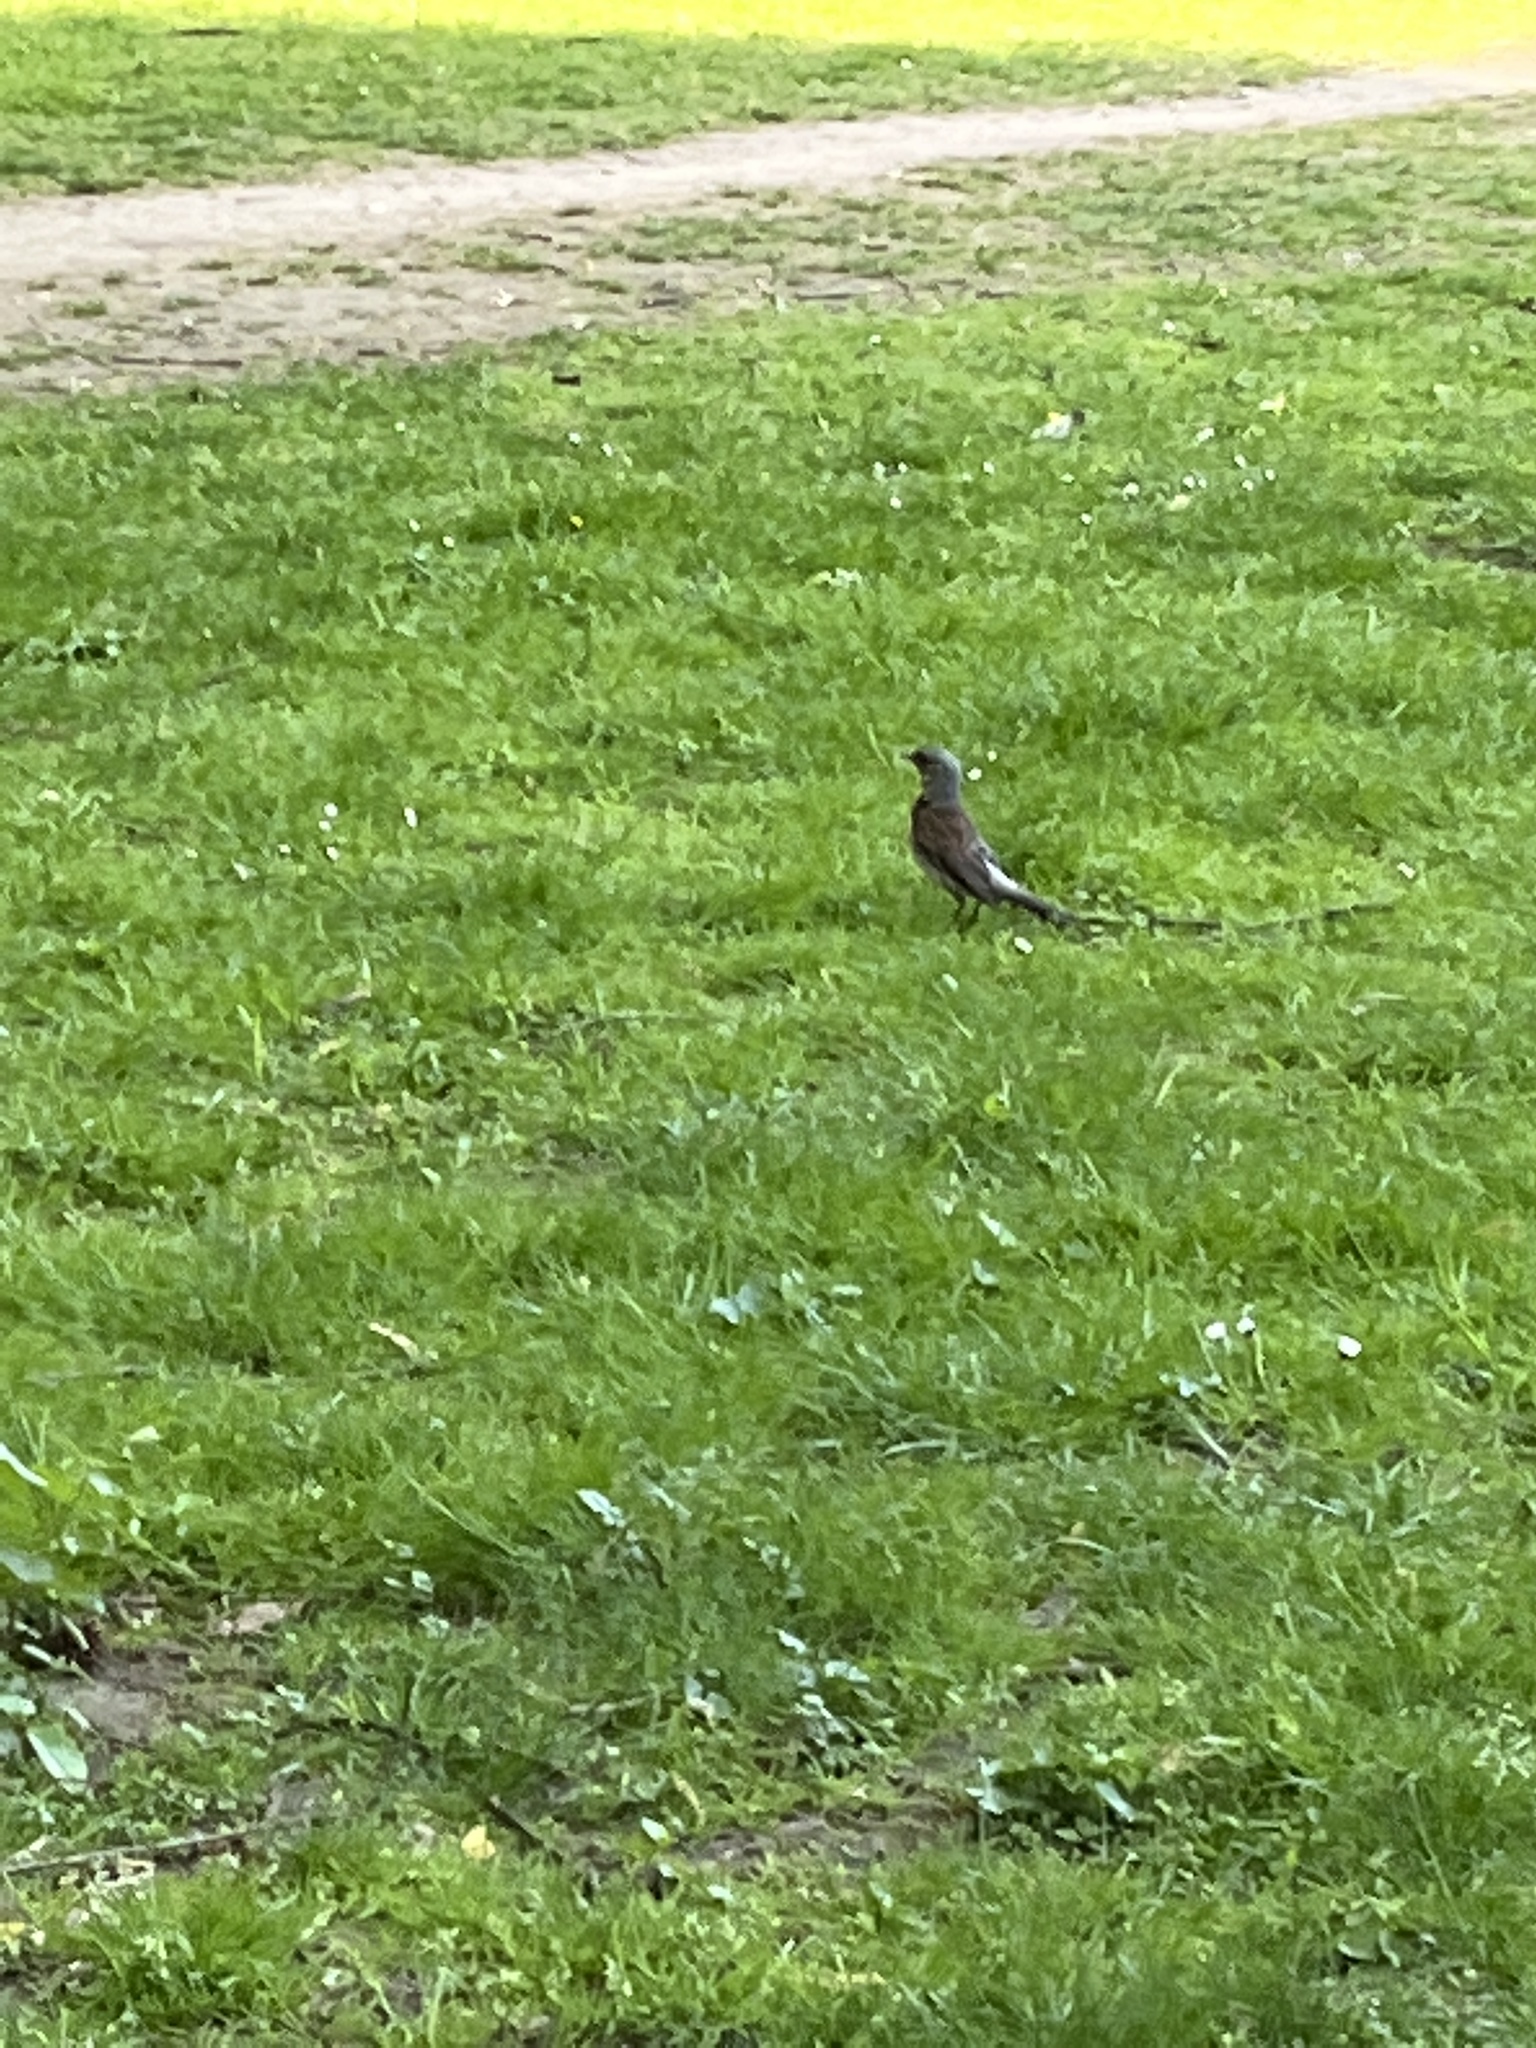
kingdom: Animalia
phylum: Chordata
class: Aves
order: Passeriformes
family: Turdidae
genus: Turdus
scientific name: Turdus pilaris
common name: Fieldfare
